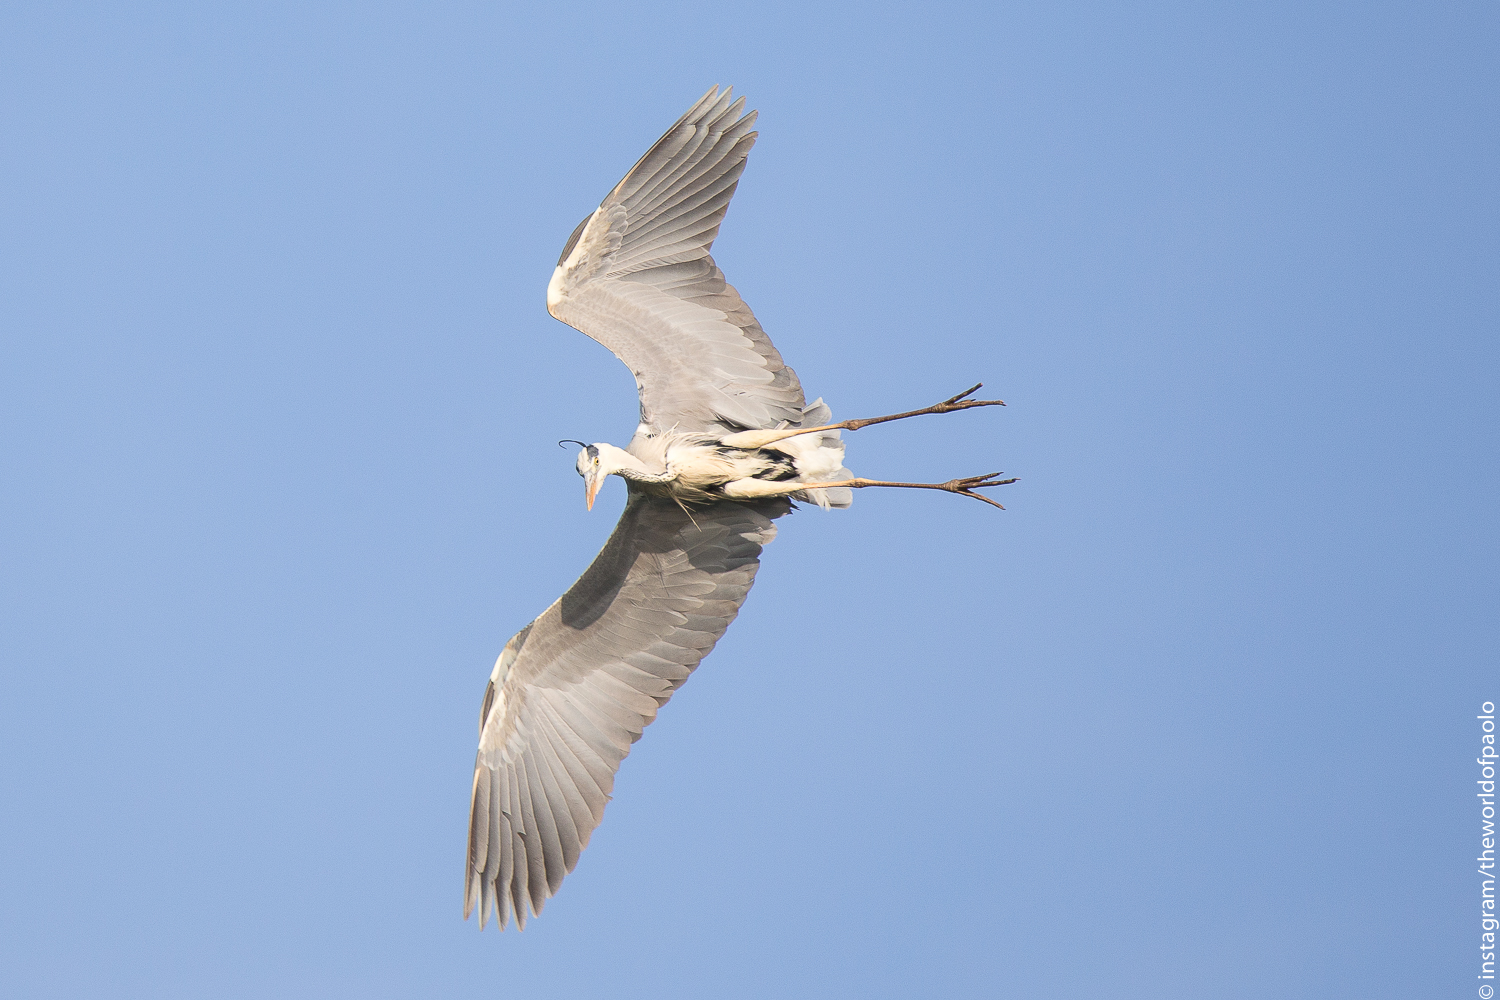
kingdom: Animalia
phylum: Chordata
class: Aves
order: Pelecaniformes
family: Ardeidae
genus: Ardea
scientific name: Ardea cinerea
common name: Grey heron
